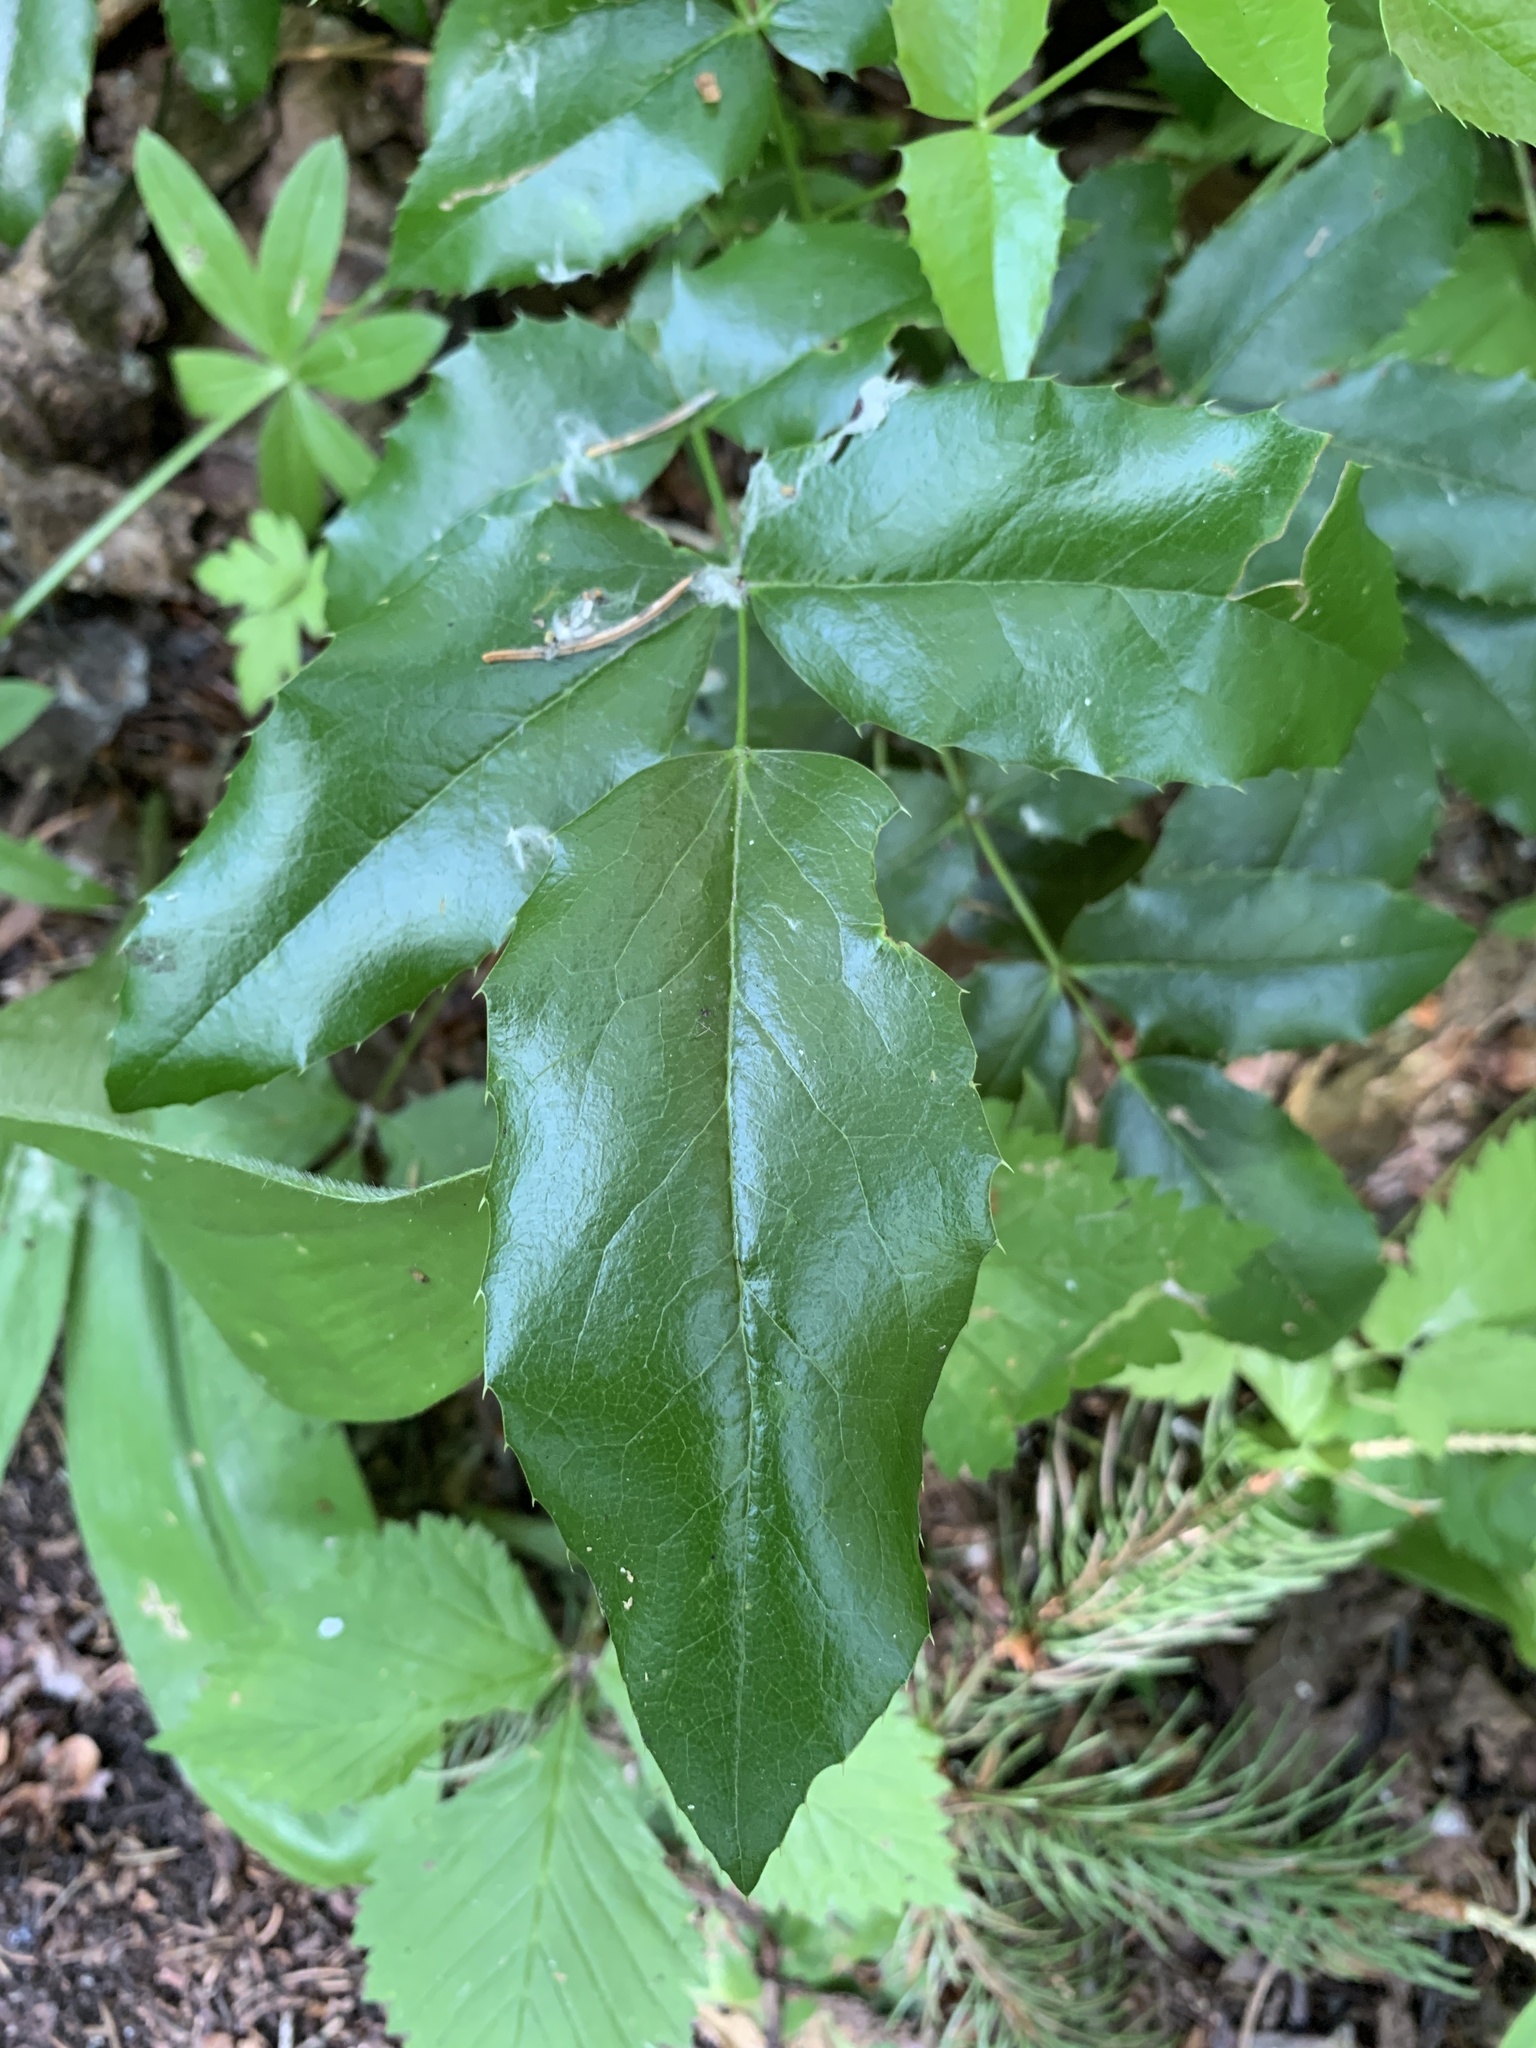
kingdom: Plantae
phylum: Tracheophyta
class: Magnoliopsida
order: Ranunculales
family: Berberidaceae
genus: Mahonia
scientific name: Mahonia aquifolium
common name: Oregon-grape
